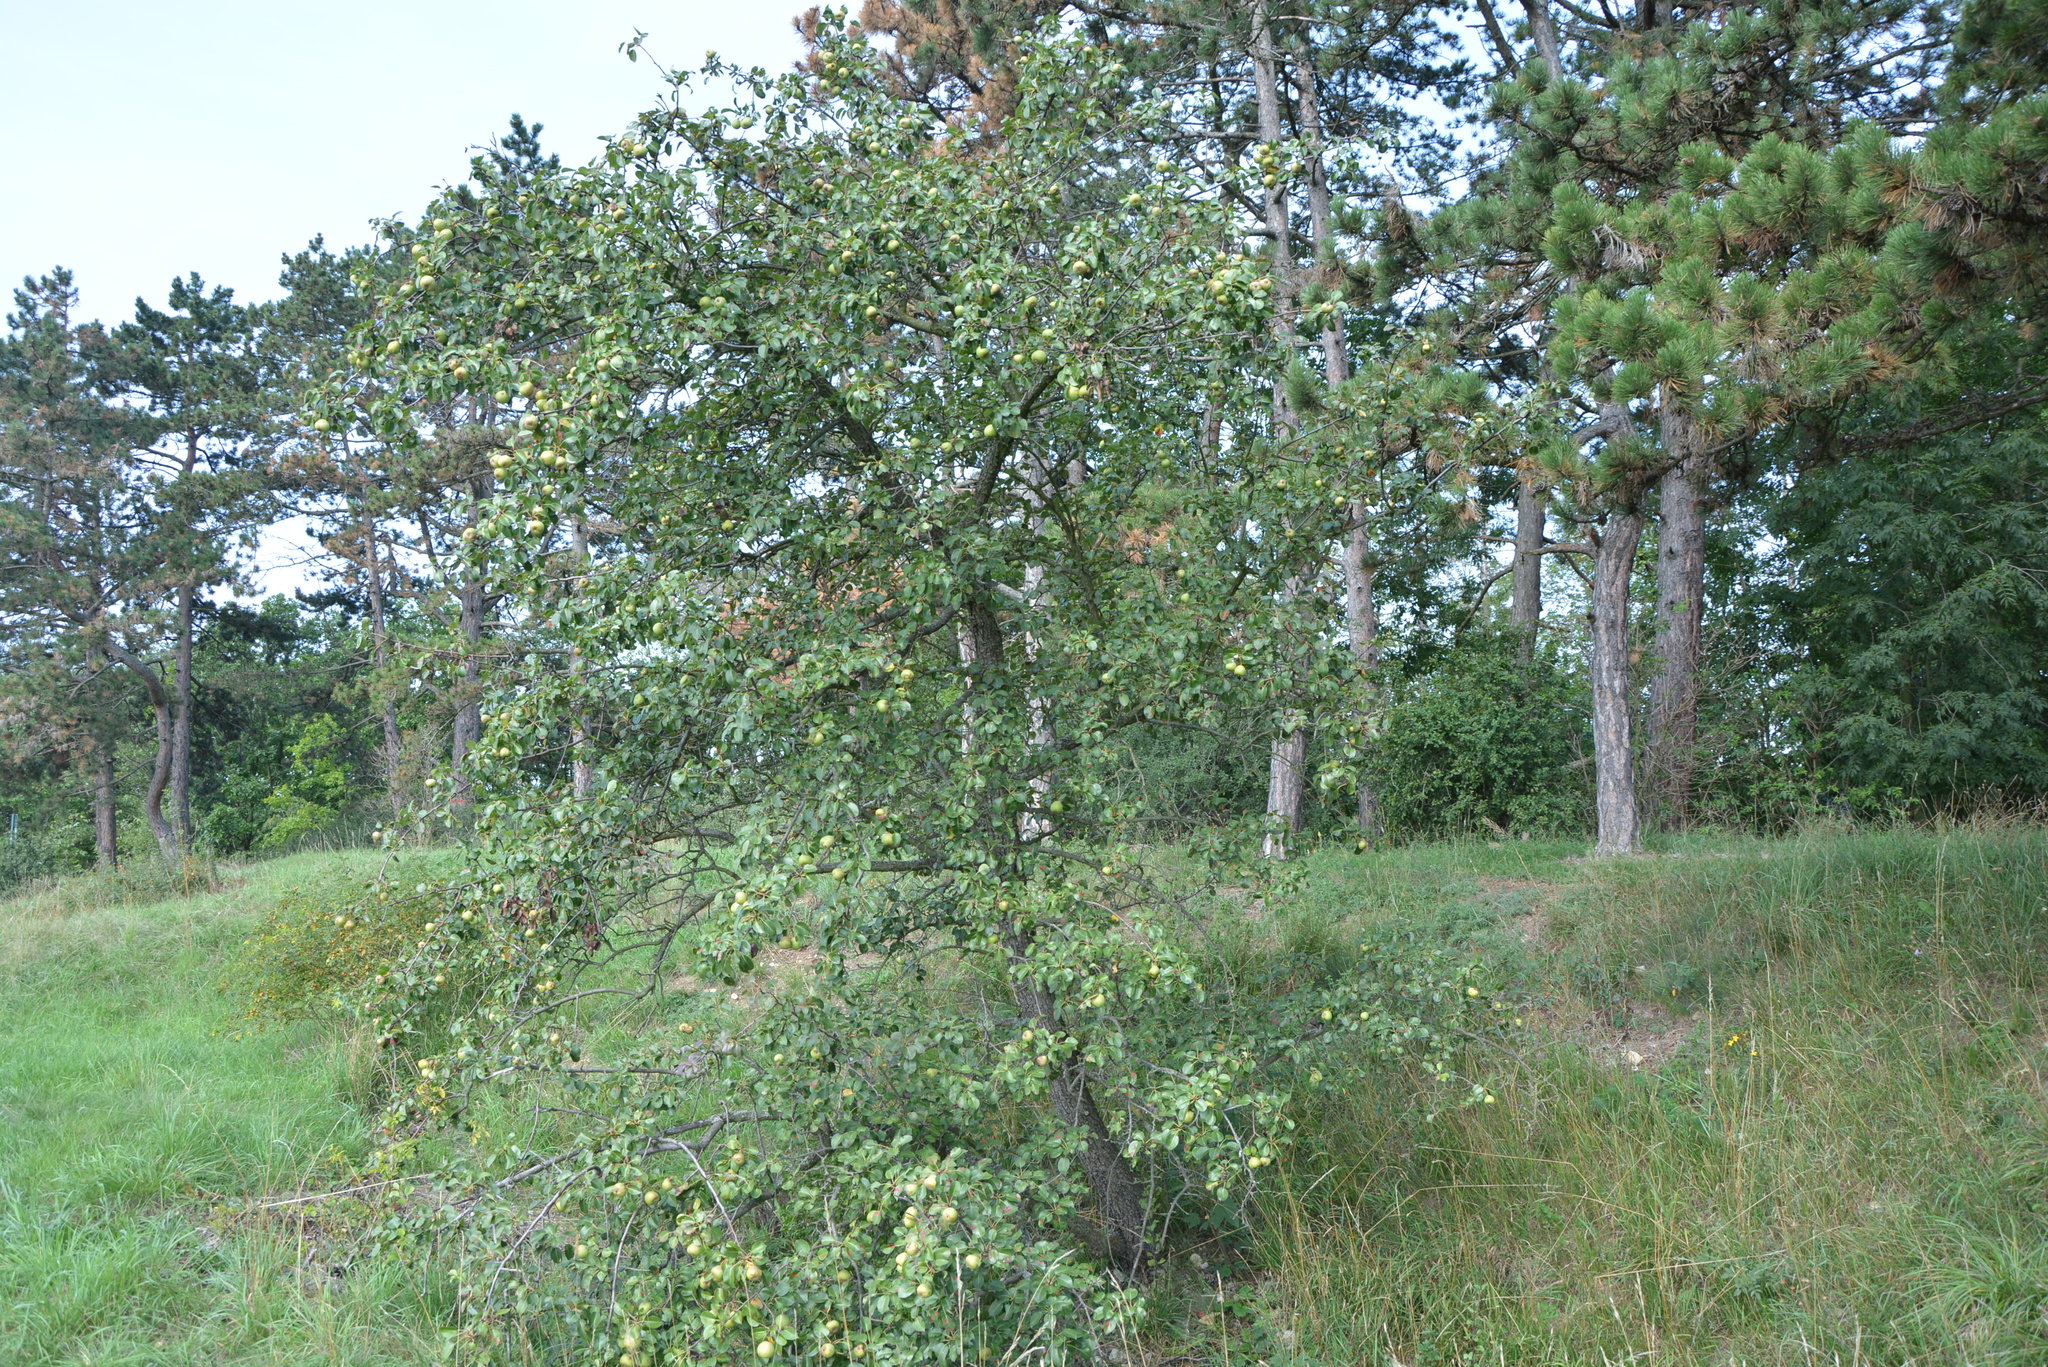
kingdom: Plantae
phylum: Tracheophyta
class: Magnoliopsida
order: Rosales
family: Rosaceae
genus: Pyrus
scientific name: Pyrus communis
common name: Pear
